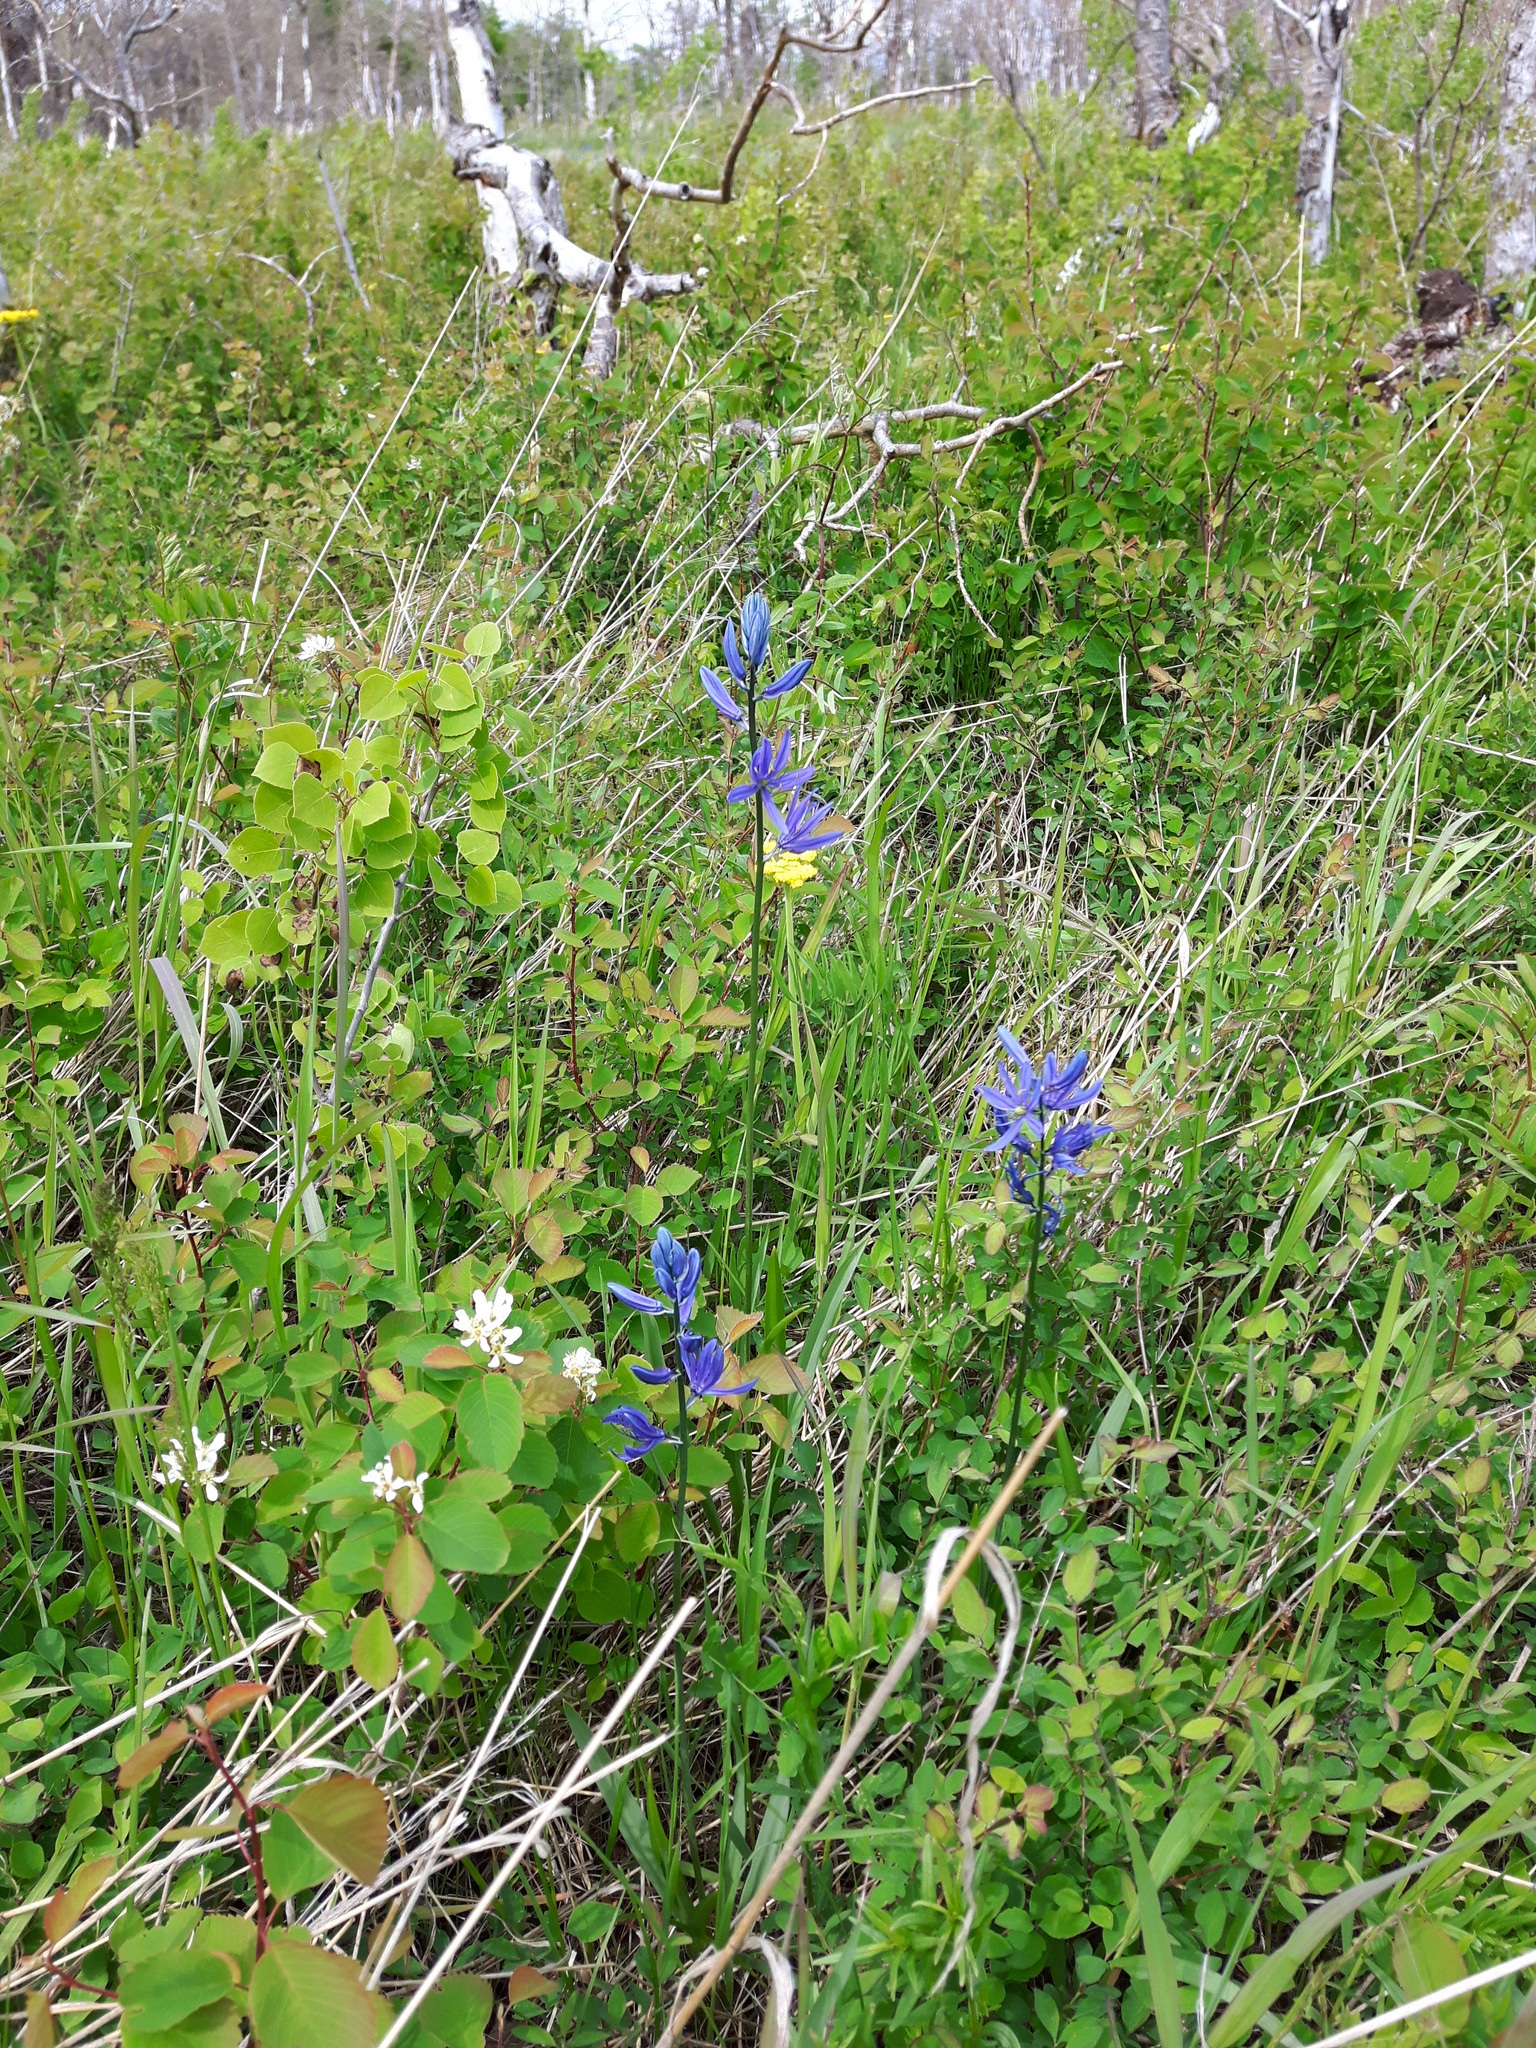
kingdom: Plantae
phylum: Tracheophyta
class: Liliopsida
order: Asparagales
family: Asparagaceae
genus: Camassia
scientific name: Camassia quamash
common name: Common camas
